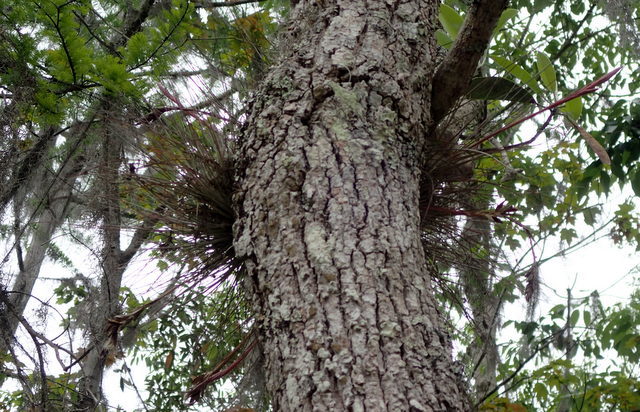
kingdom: Plantae
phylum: Tracheophyta
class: Liliopsida
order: Poales
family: Bromeliaceae
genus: Tillandsia
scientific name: Tillandsia bartramii
